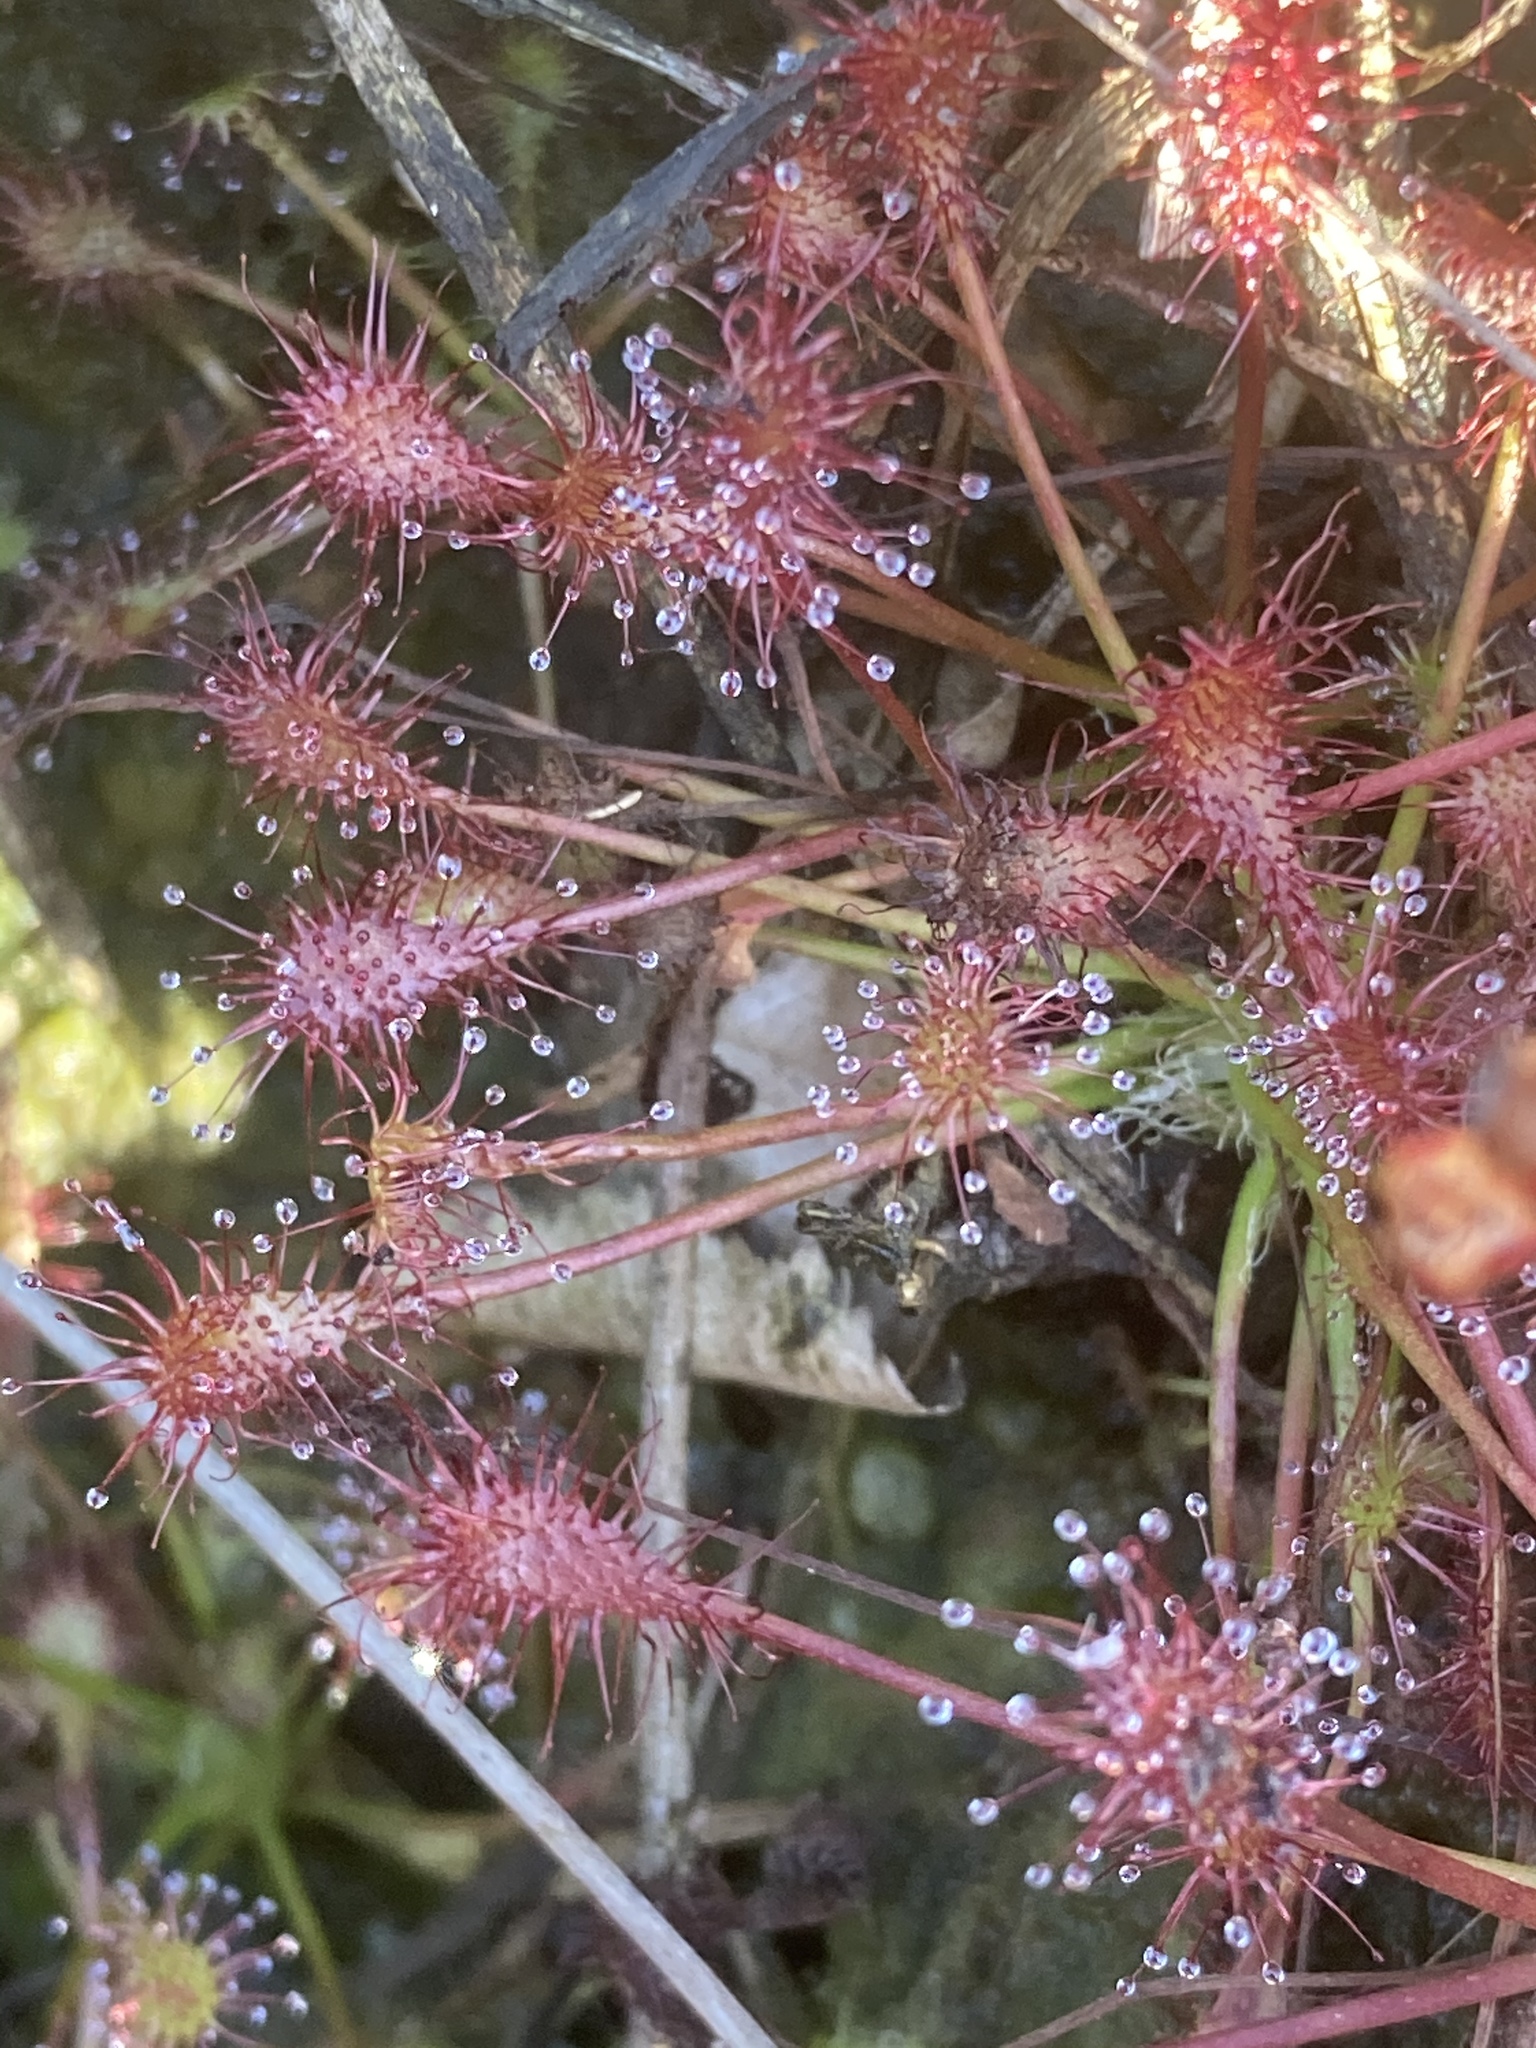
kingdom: Plantae
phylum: Tracheophyta
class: Magnoliopsida
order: Caryophyllales
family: Droseraceae
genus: Drosera
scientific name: Drosera intermedia
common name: Oblong-leaved sundew
